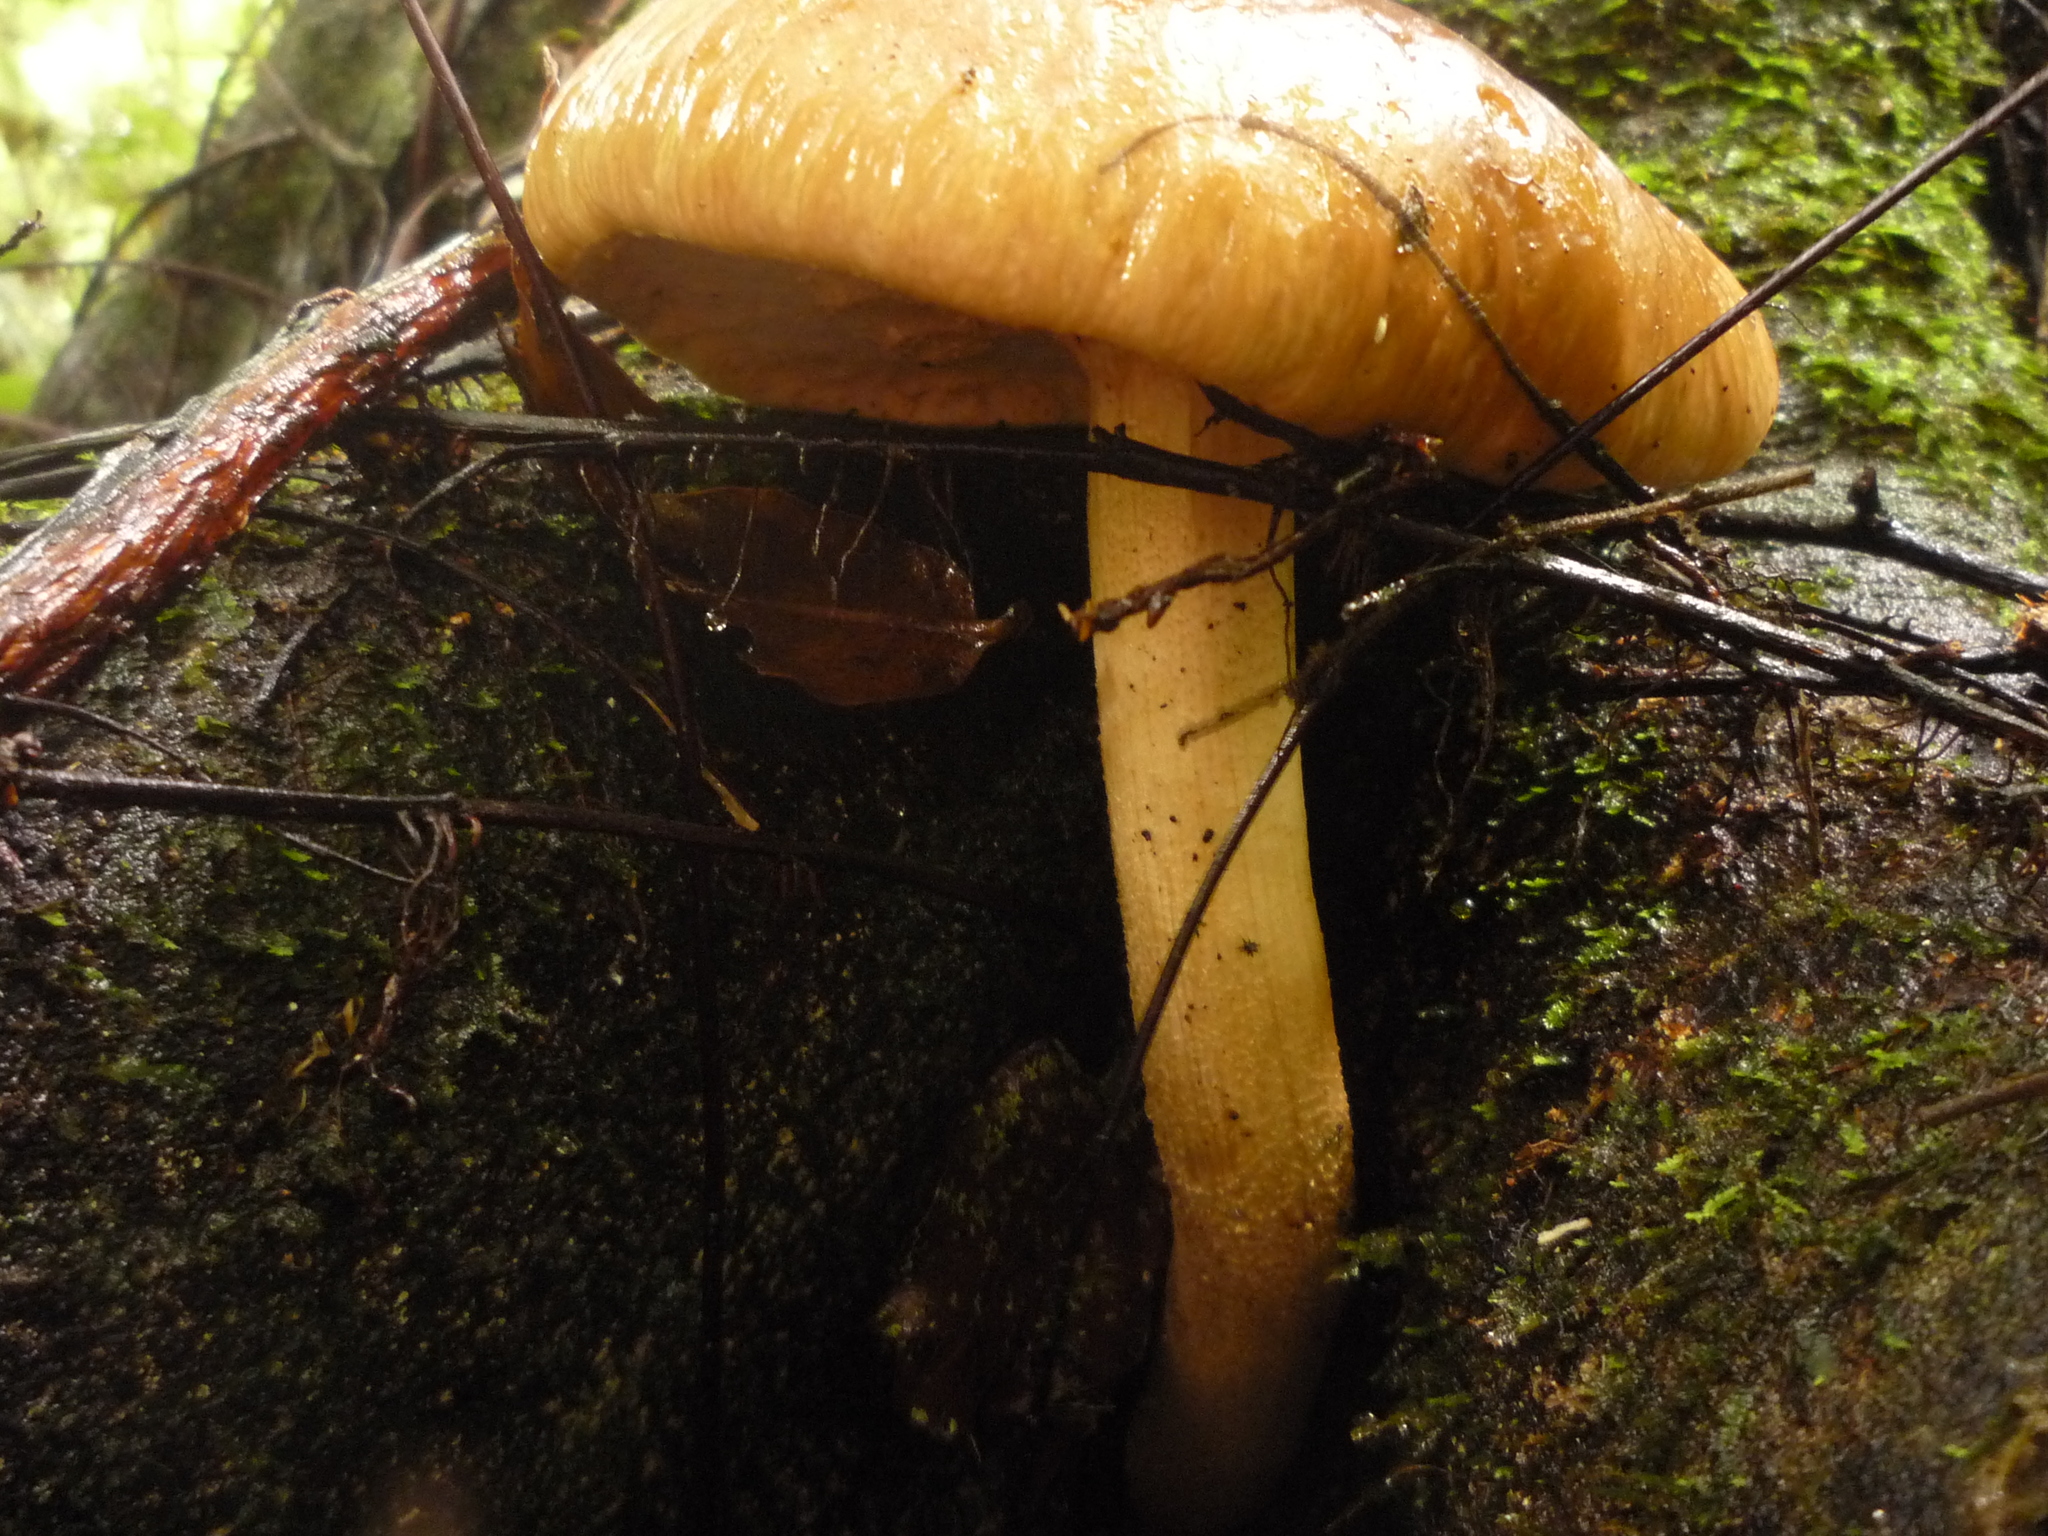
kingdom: Fungi
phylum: Basidiomycota
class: Agaricomycetes
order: Agaricales
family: Tubariaceae
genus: Cyclocybe
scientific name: Cyclocybe parasitica
